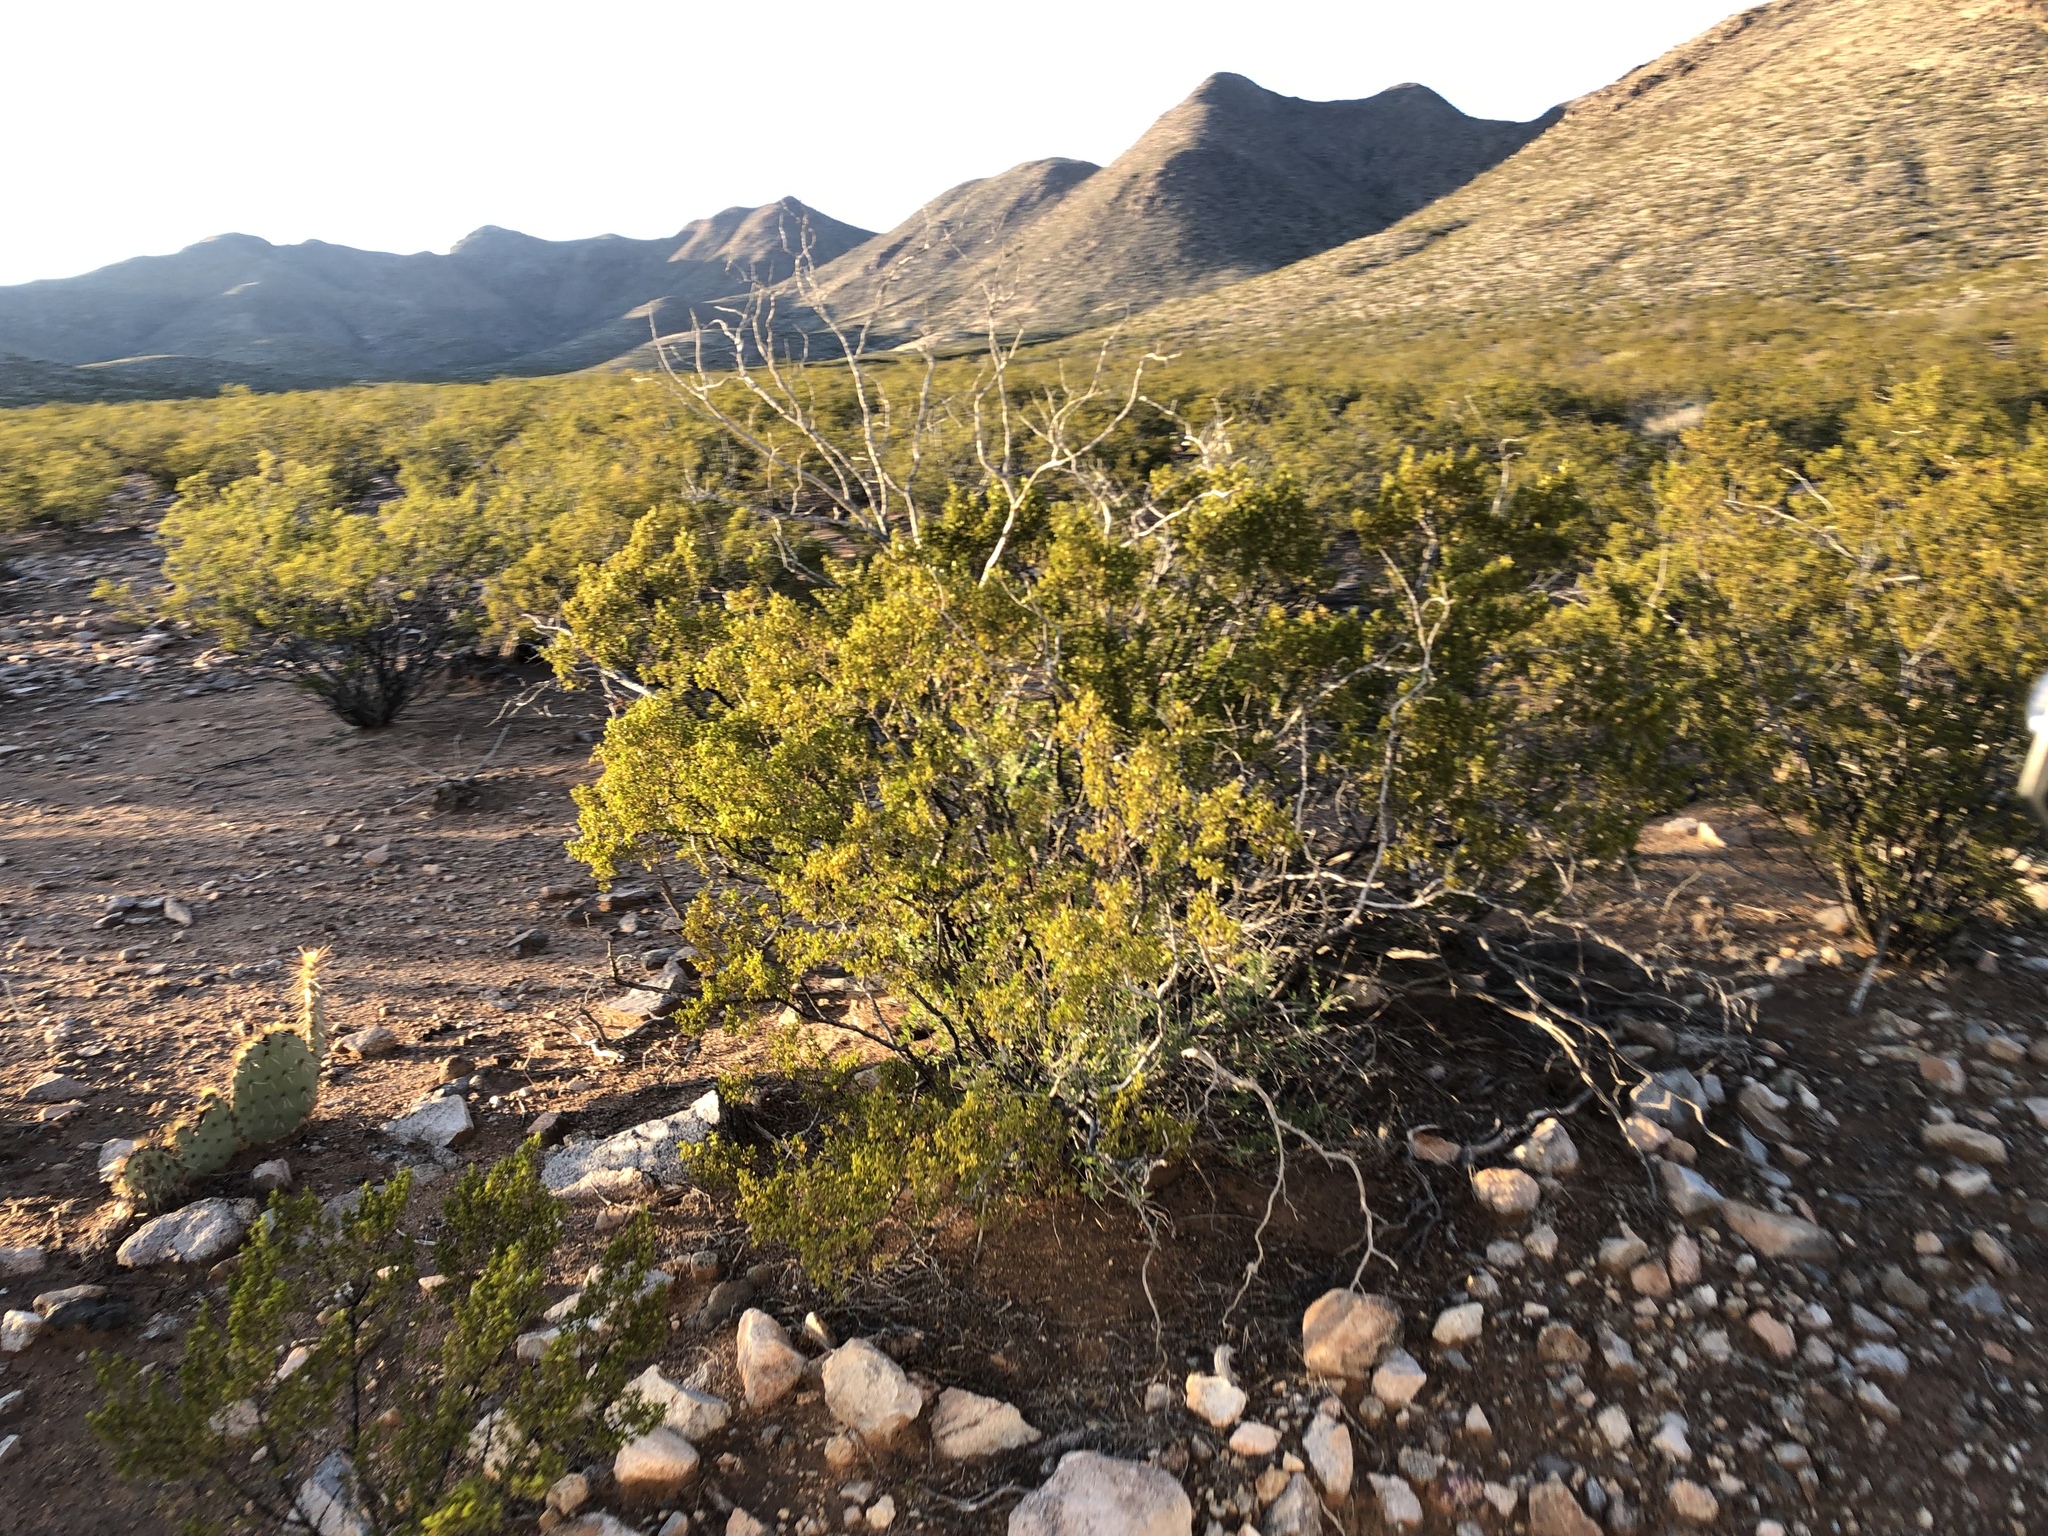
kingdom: Plantae
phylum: Tracheophyta
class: Magnoliopsida
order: Zygophyllales
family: Zygophyllaceae
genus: Larrea
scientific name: Larrea tridentata
